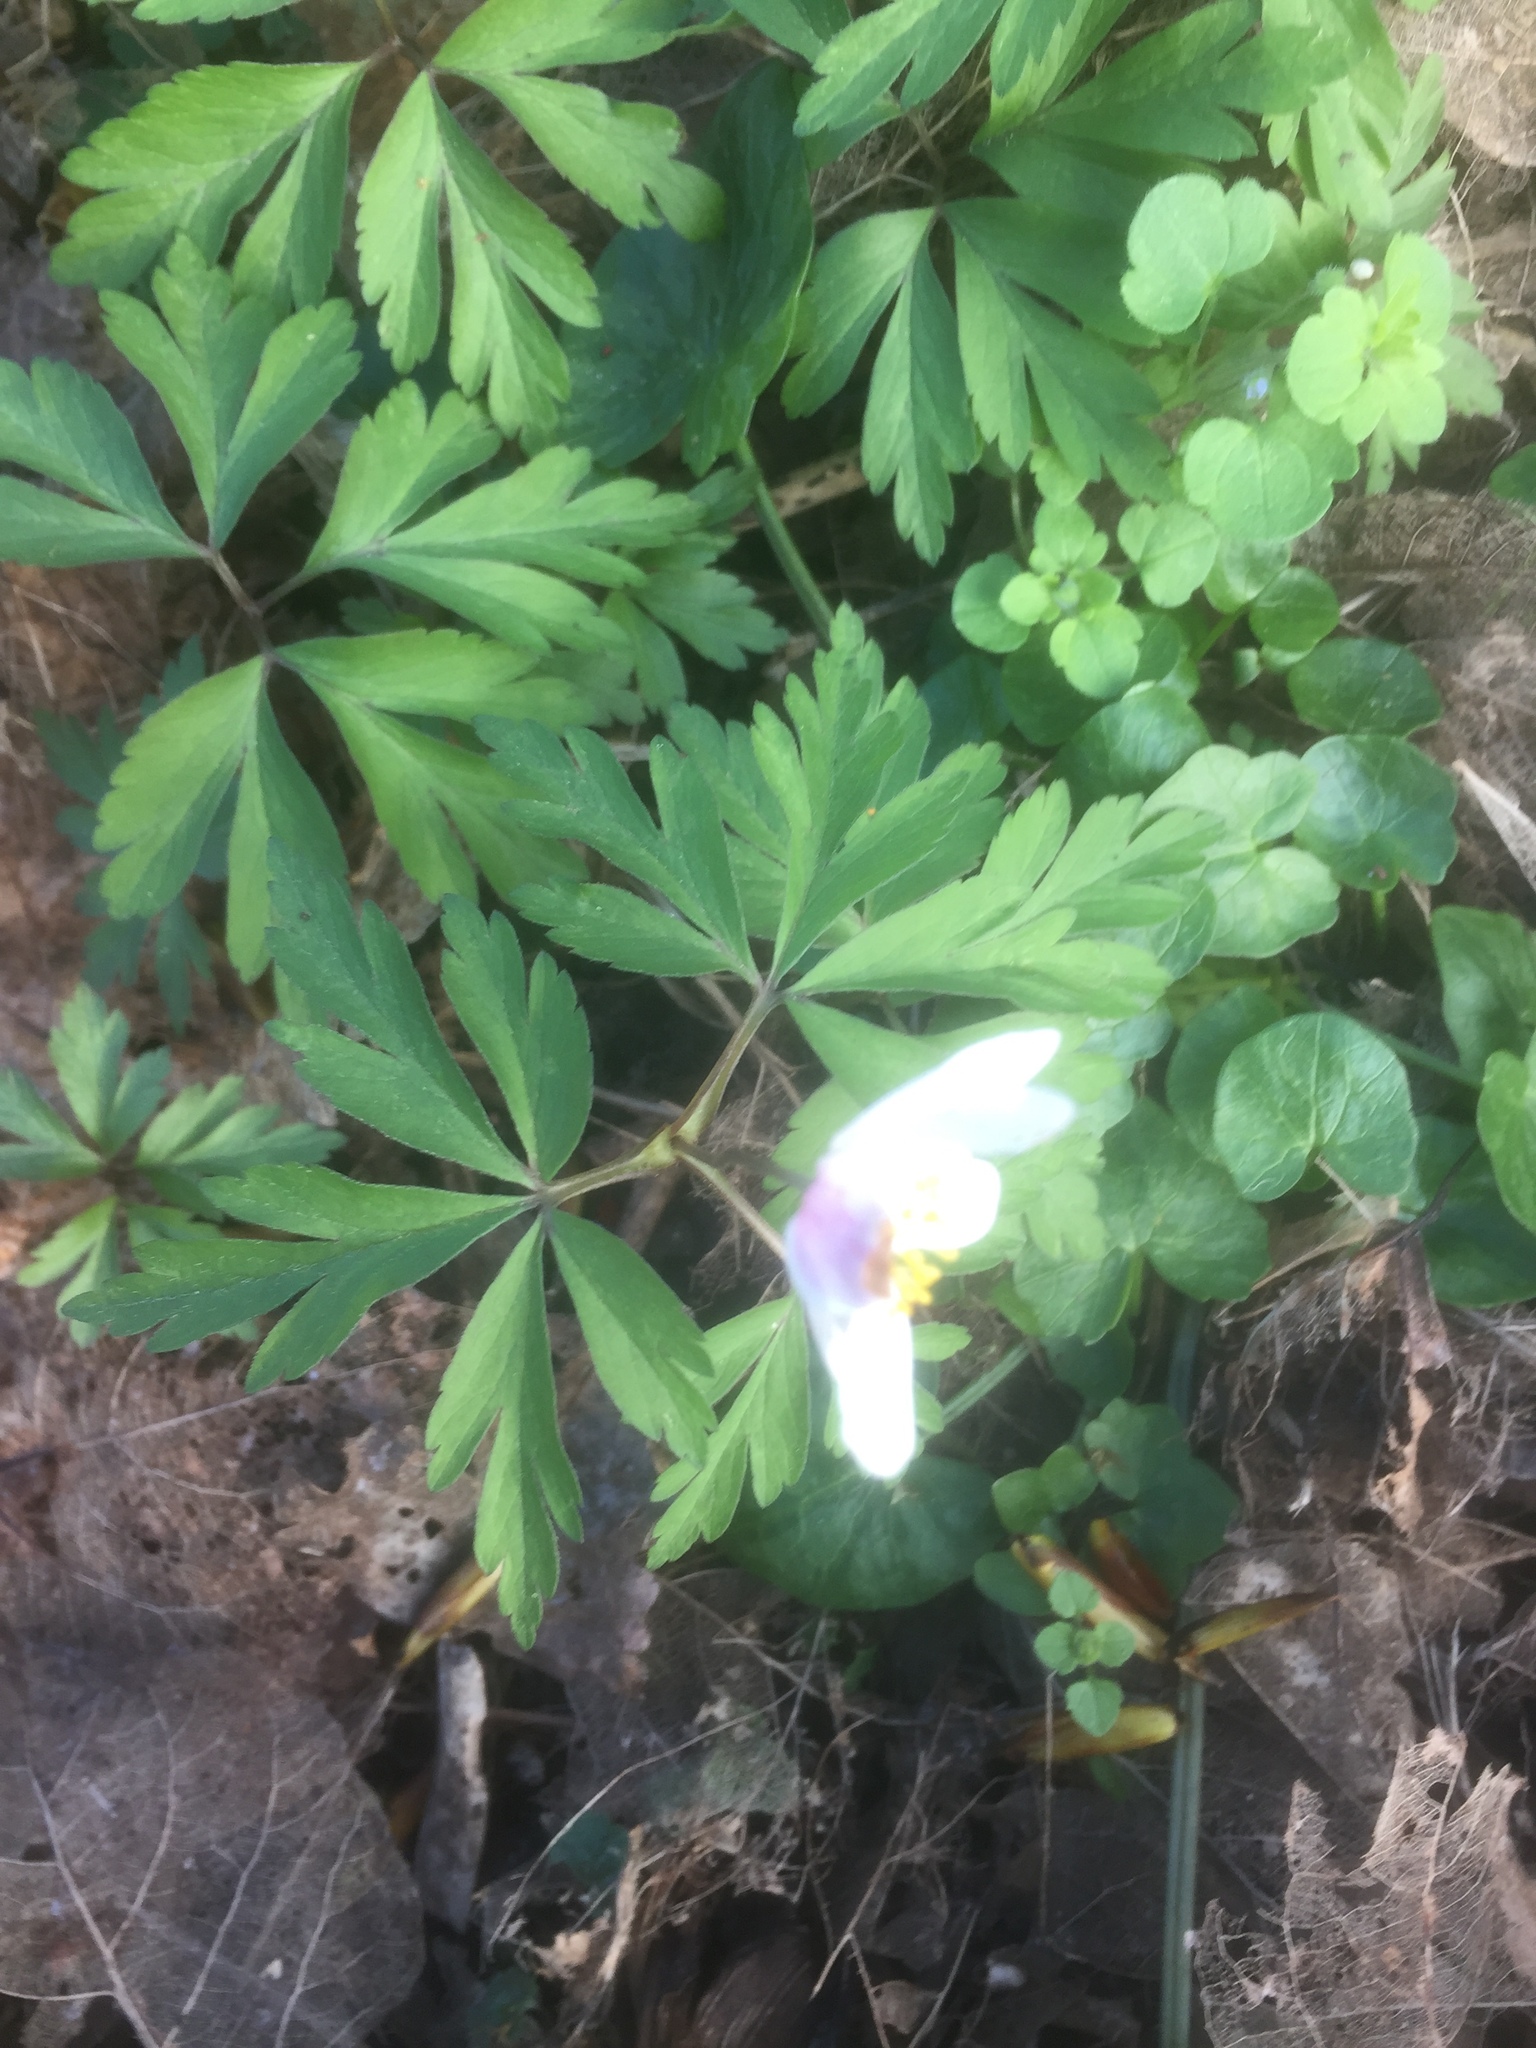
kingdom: Plantae
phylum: Tracheophyta
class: Magnoliopsida
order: Ranunculales
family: Ranunculaceae
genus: Anemone
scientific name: Anemone nemorosa
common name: Wood anemone
